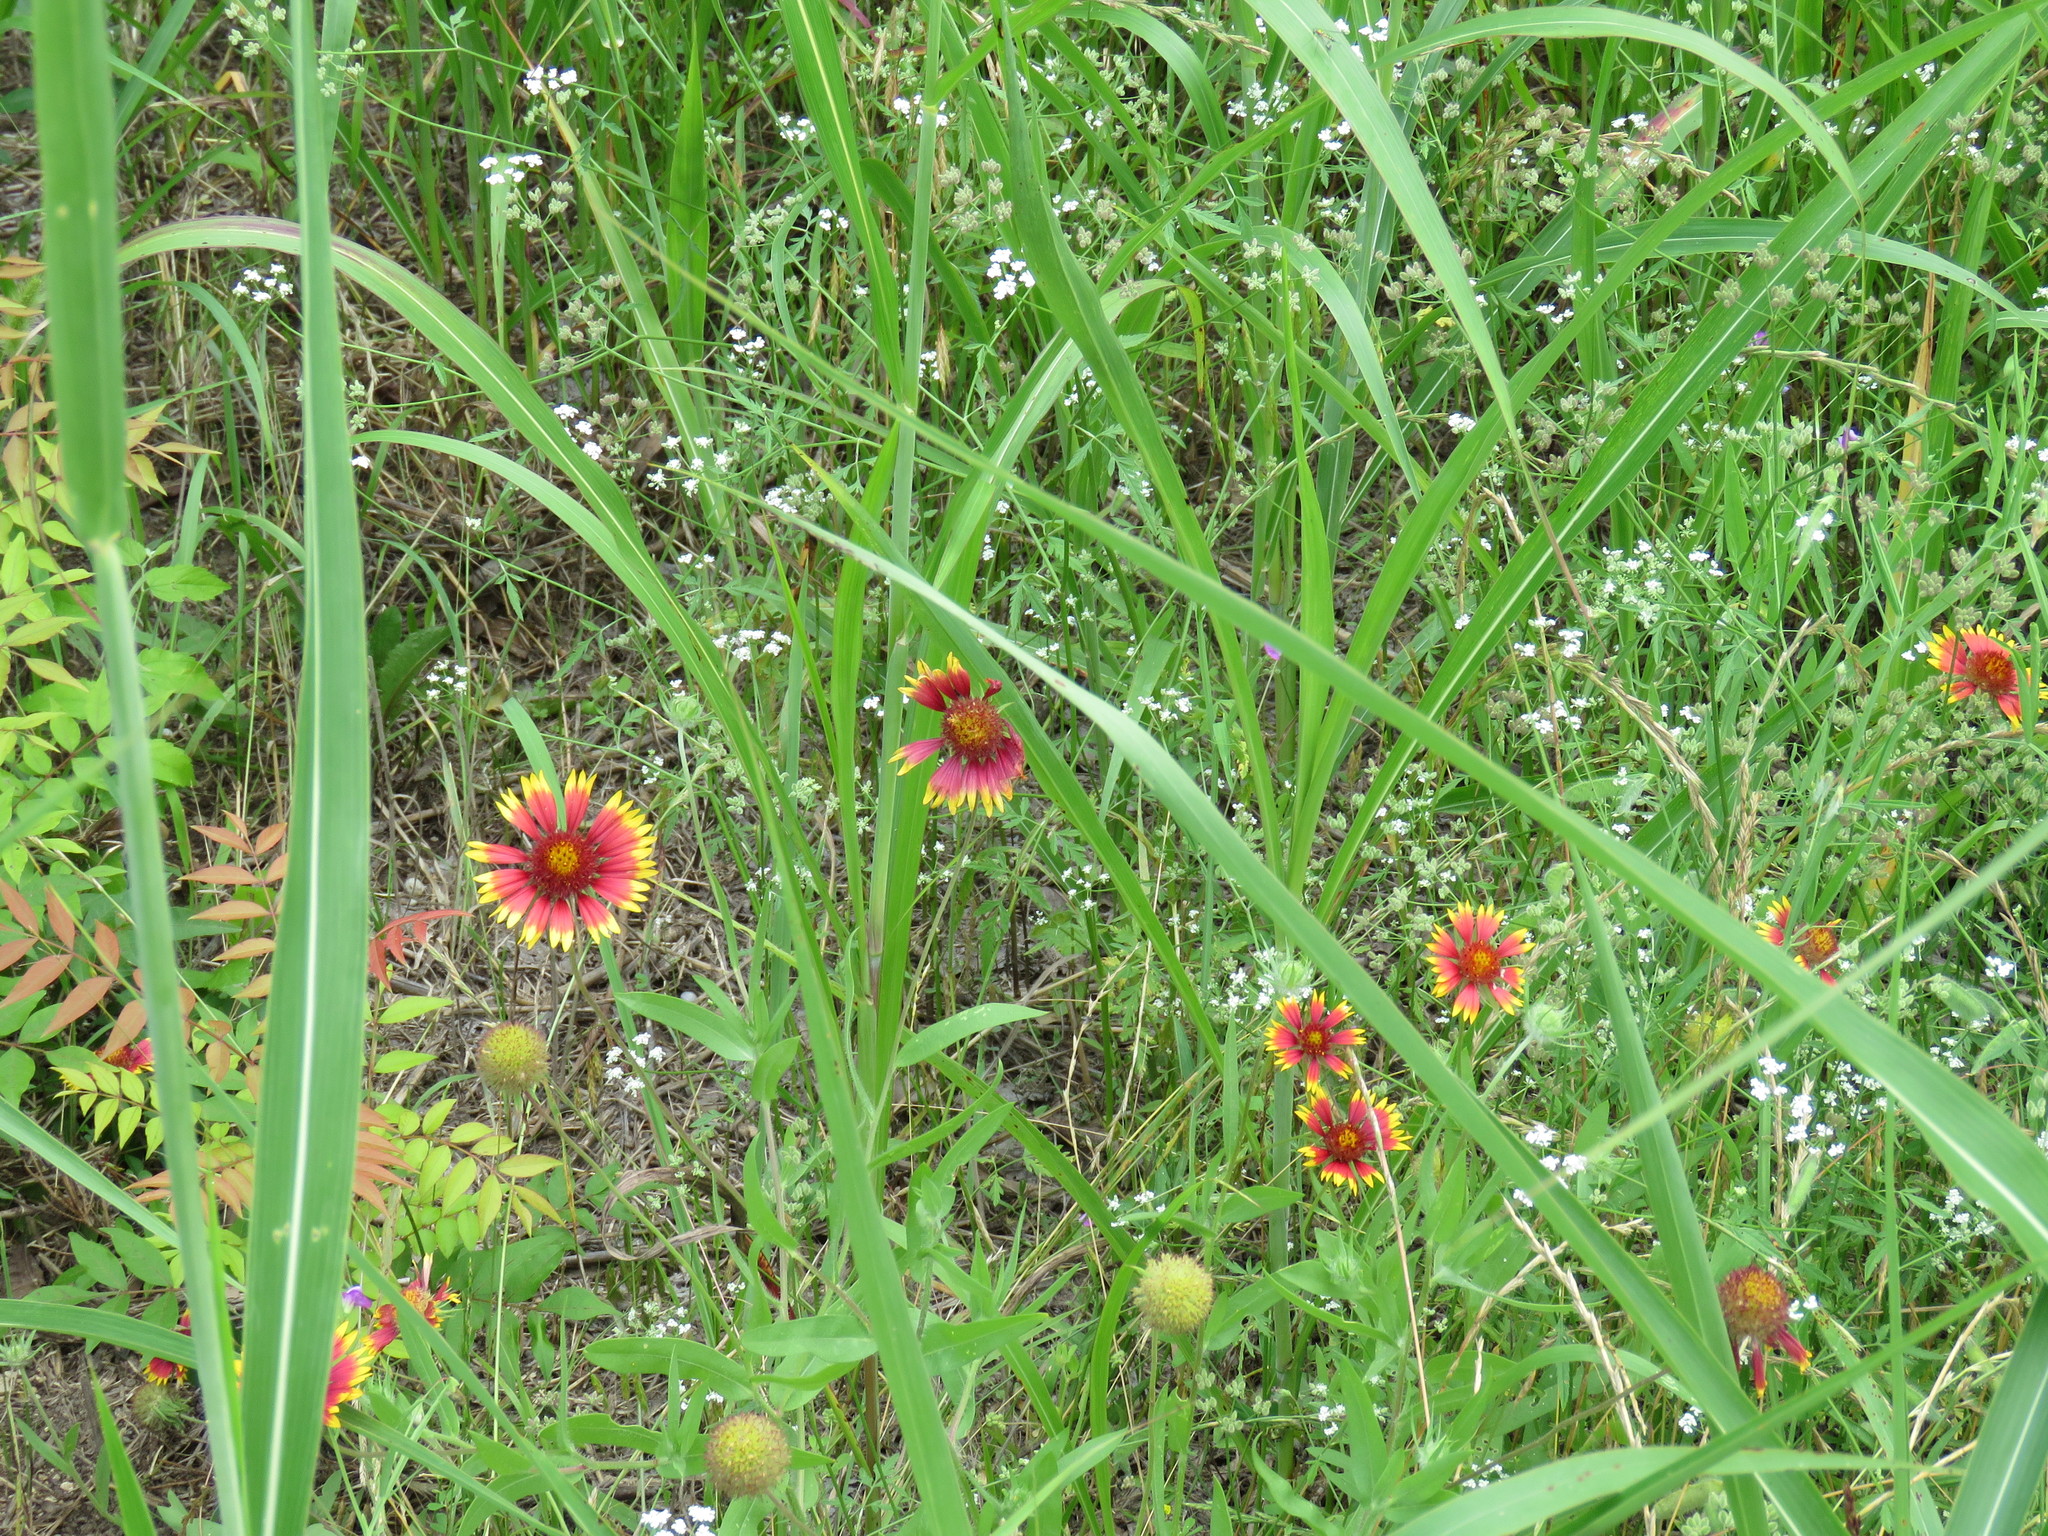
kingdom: Plantae
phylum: Tracheophyta
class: Magnoliopsida
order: Asterales
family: Asteraceae
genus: Gaillardia
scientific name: Gaillardia pulchella
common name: Firewheel
